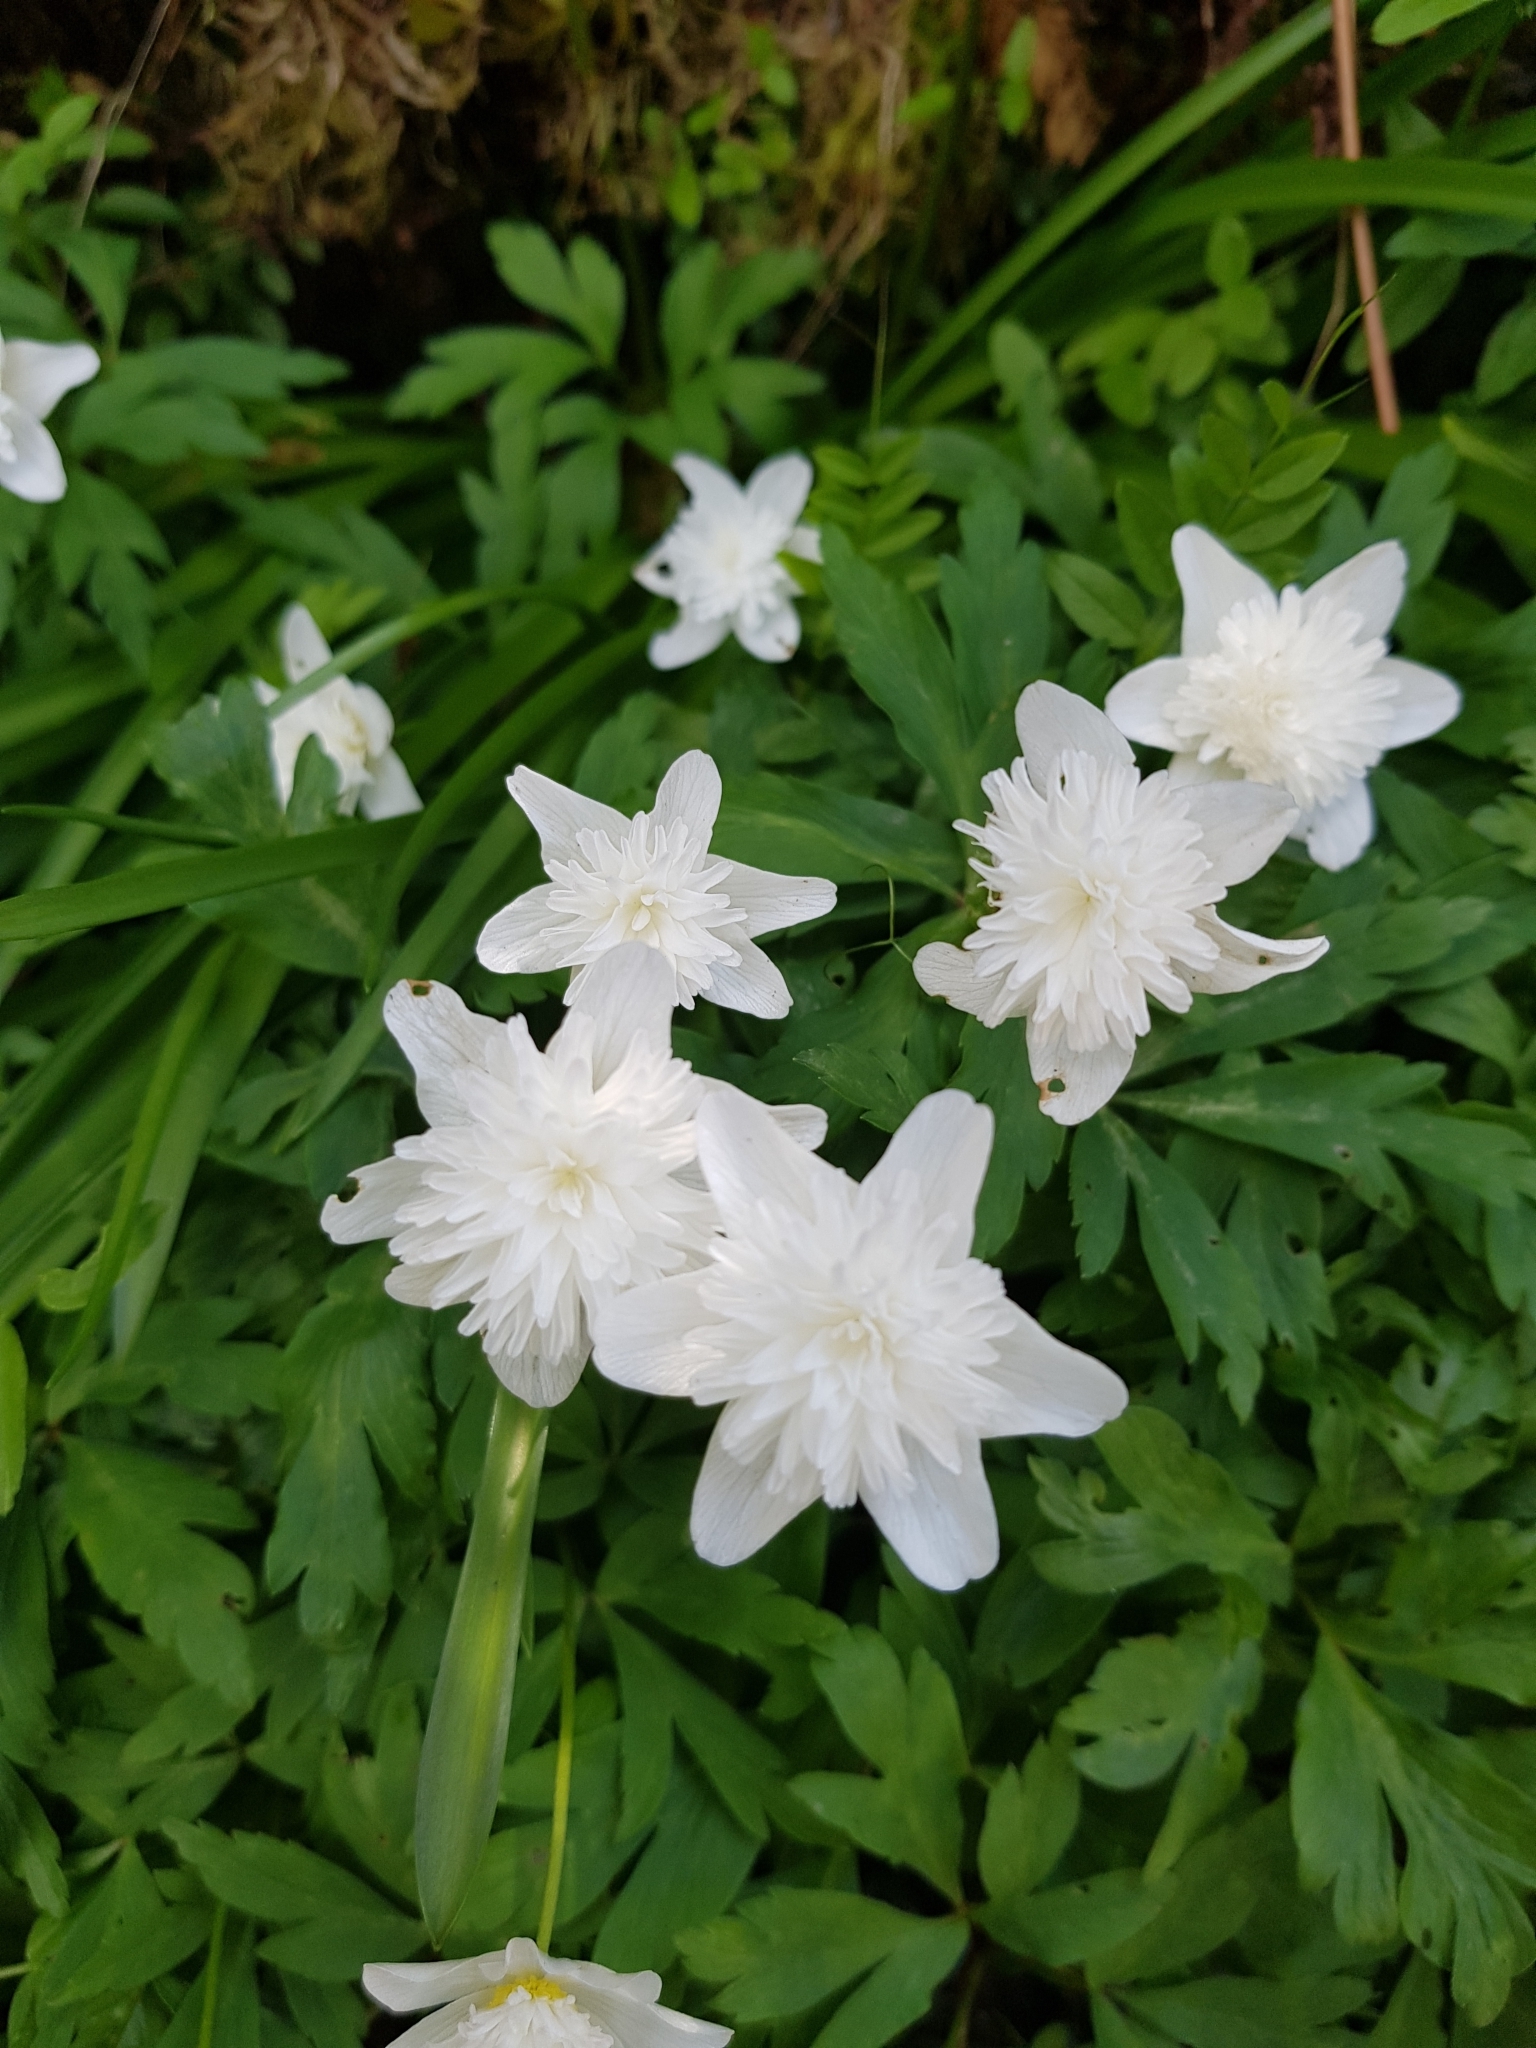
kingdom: Plantae
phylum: Tracheophyta
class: Magnoliopsida
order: Ranunculales
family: Ranunculaceae
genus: Anemone
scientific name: Anemone nemorosa
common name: Wood anemone
